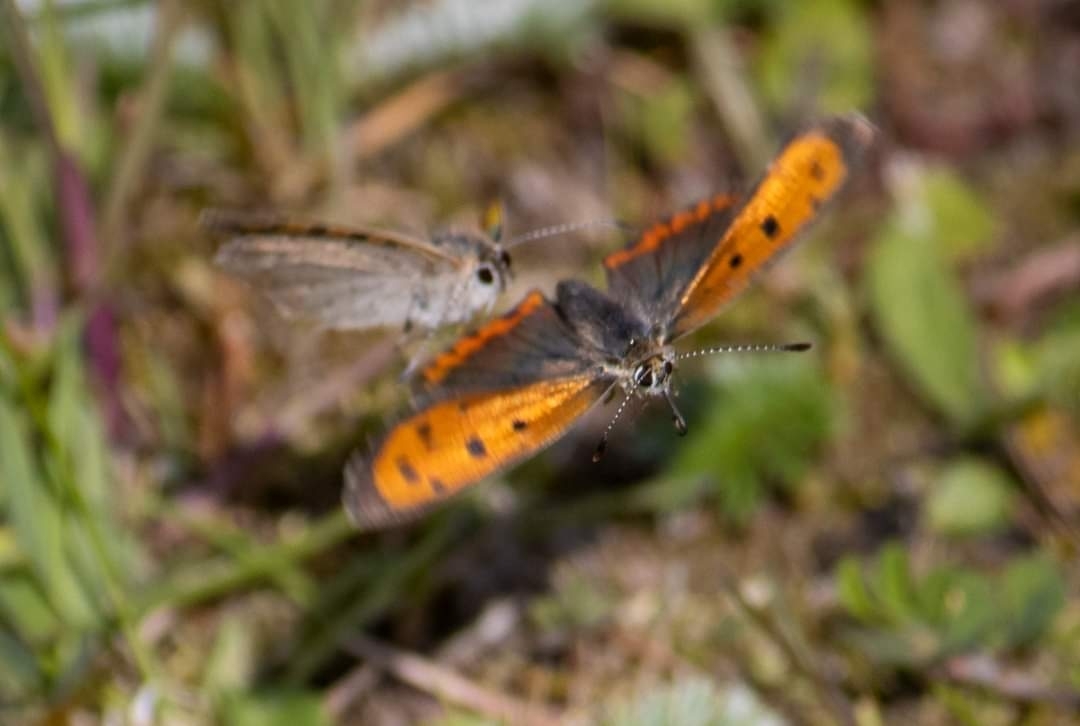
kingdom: Animalia
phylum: Arthropoda
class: Insecta
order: Lepidoptera
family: Lycaenidae
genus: Lycaena
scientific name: Lycaena phlaeas
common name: Small copper
